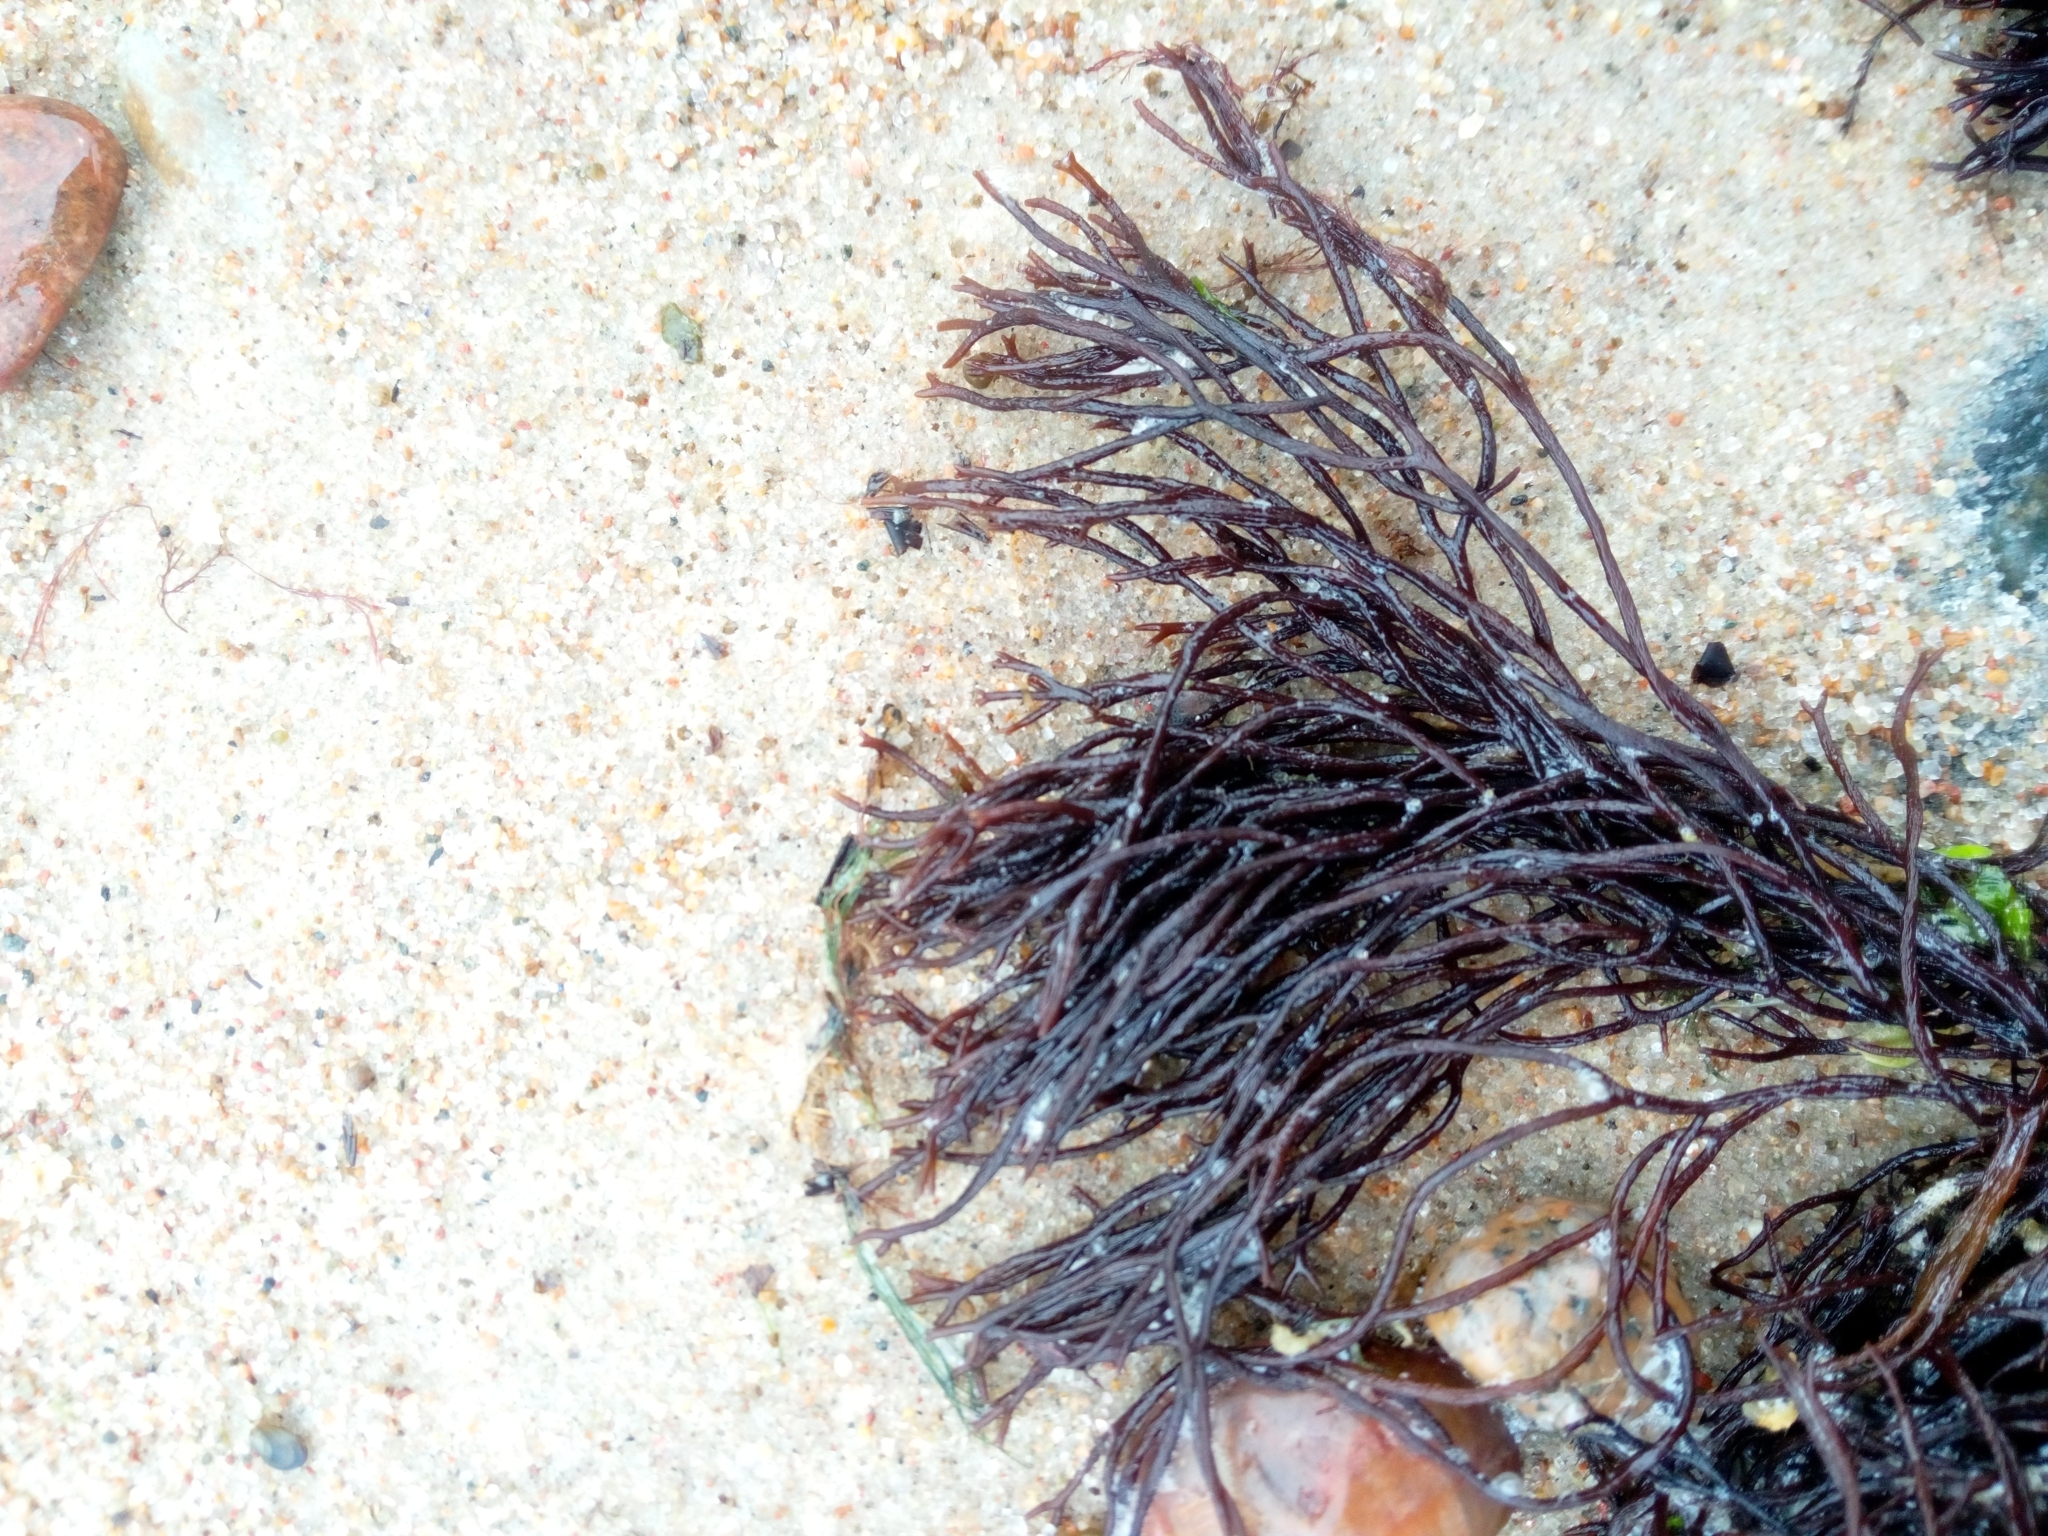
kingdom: Plantae
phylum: Rhodophyta
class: Florideophyceae
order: Gigartinales
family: Furcellariaceae
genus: Furcellaria
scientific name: Furcellaria lumbricalis
